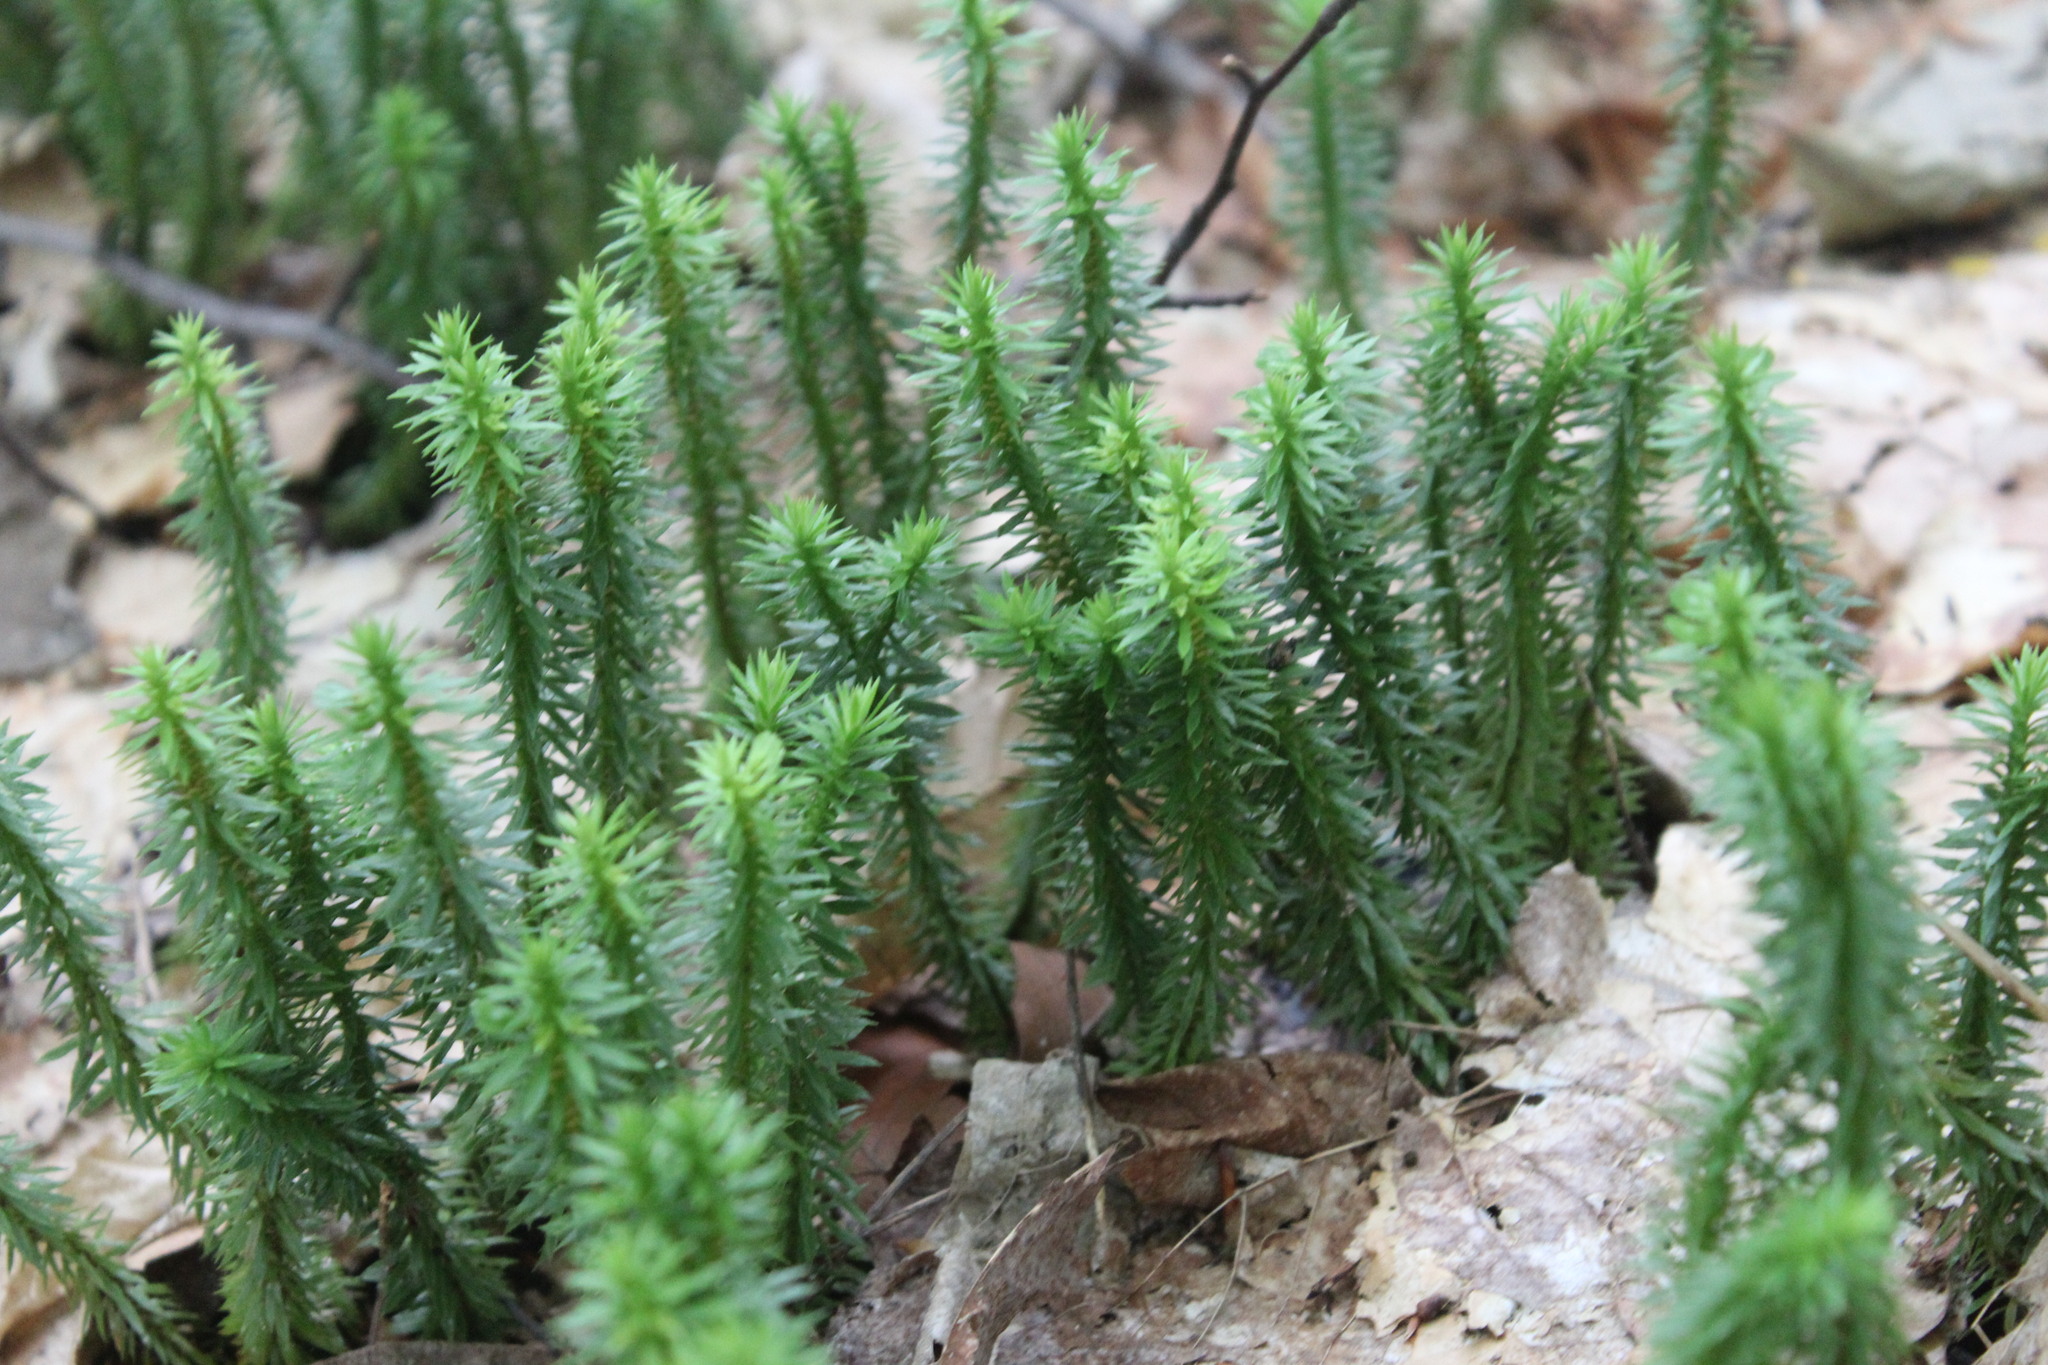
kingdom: Plantae
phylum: Tracheophyta
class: Lycopodiopsida
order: Lycopodiales
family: Lycopodiaceae
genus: Huperzia
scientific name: Huperzia lucidula
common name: Shining clubmoss
